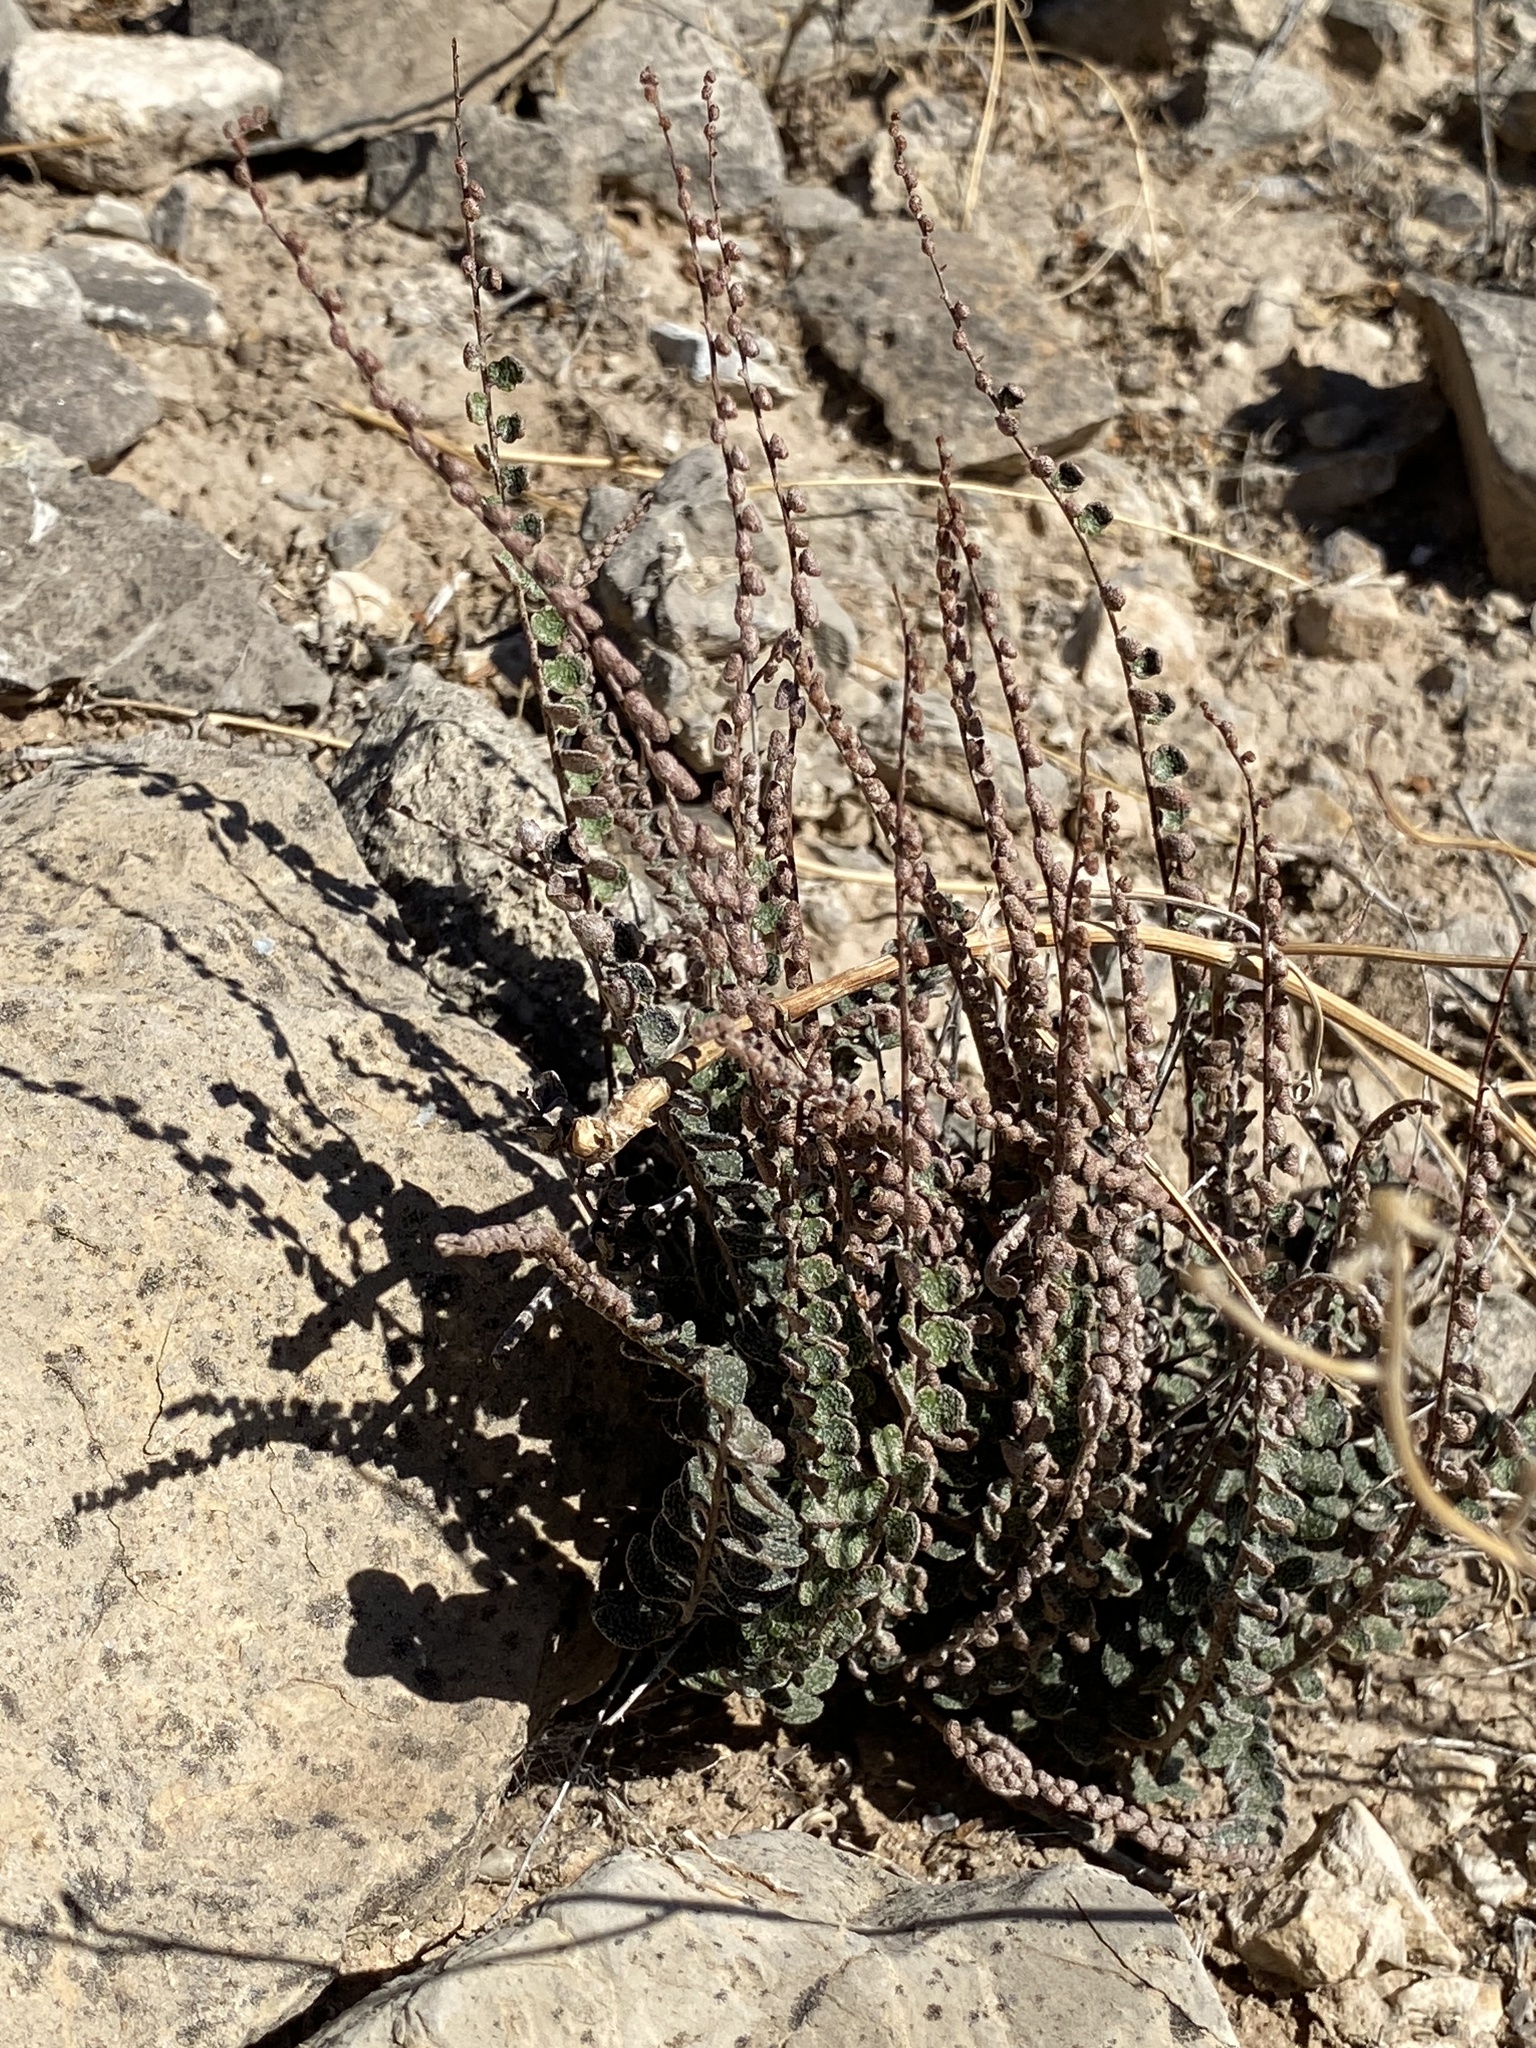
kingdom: Plantae
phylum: Tracheophyta
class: Polypodiopsida
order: Polypodiales
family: Pteridaceae
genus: Astrolepis
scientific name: Astrolepis cochisensis
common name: Scaly cloak fern
